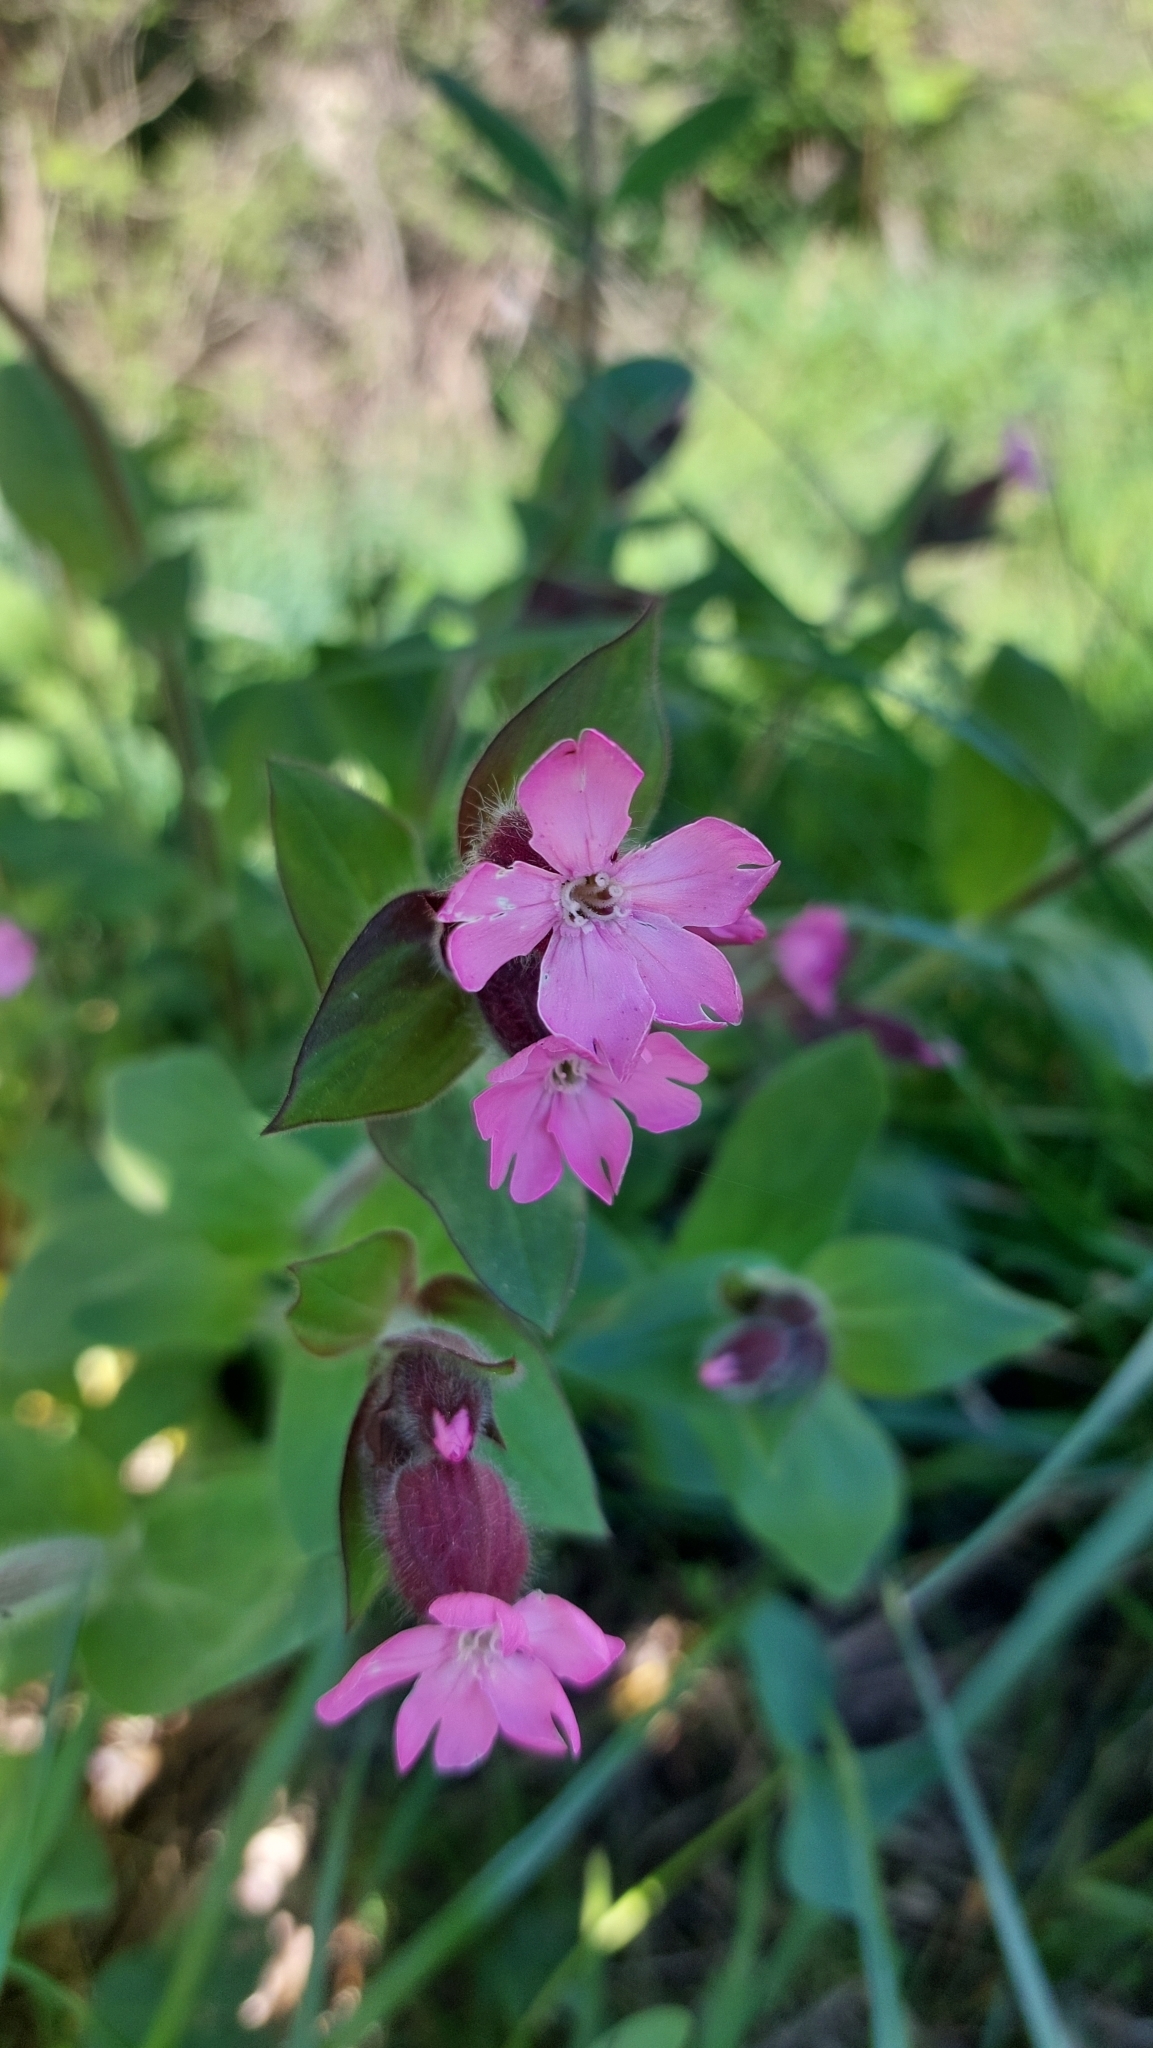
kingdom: Plantae
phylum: Tracheophyta
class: Magnoliopsida
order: Caryophyllales
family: Caryophyllaceae
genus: Silene
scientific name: Silene dioica
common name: Red campion
